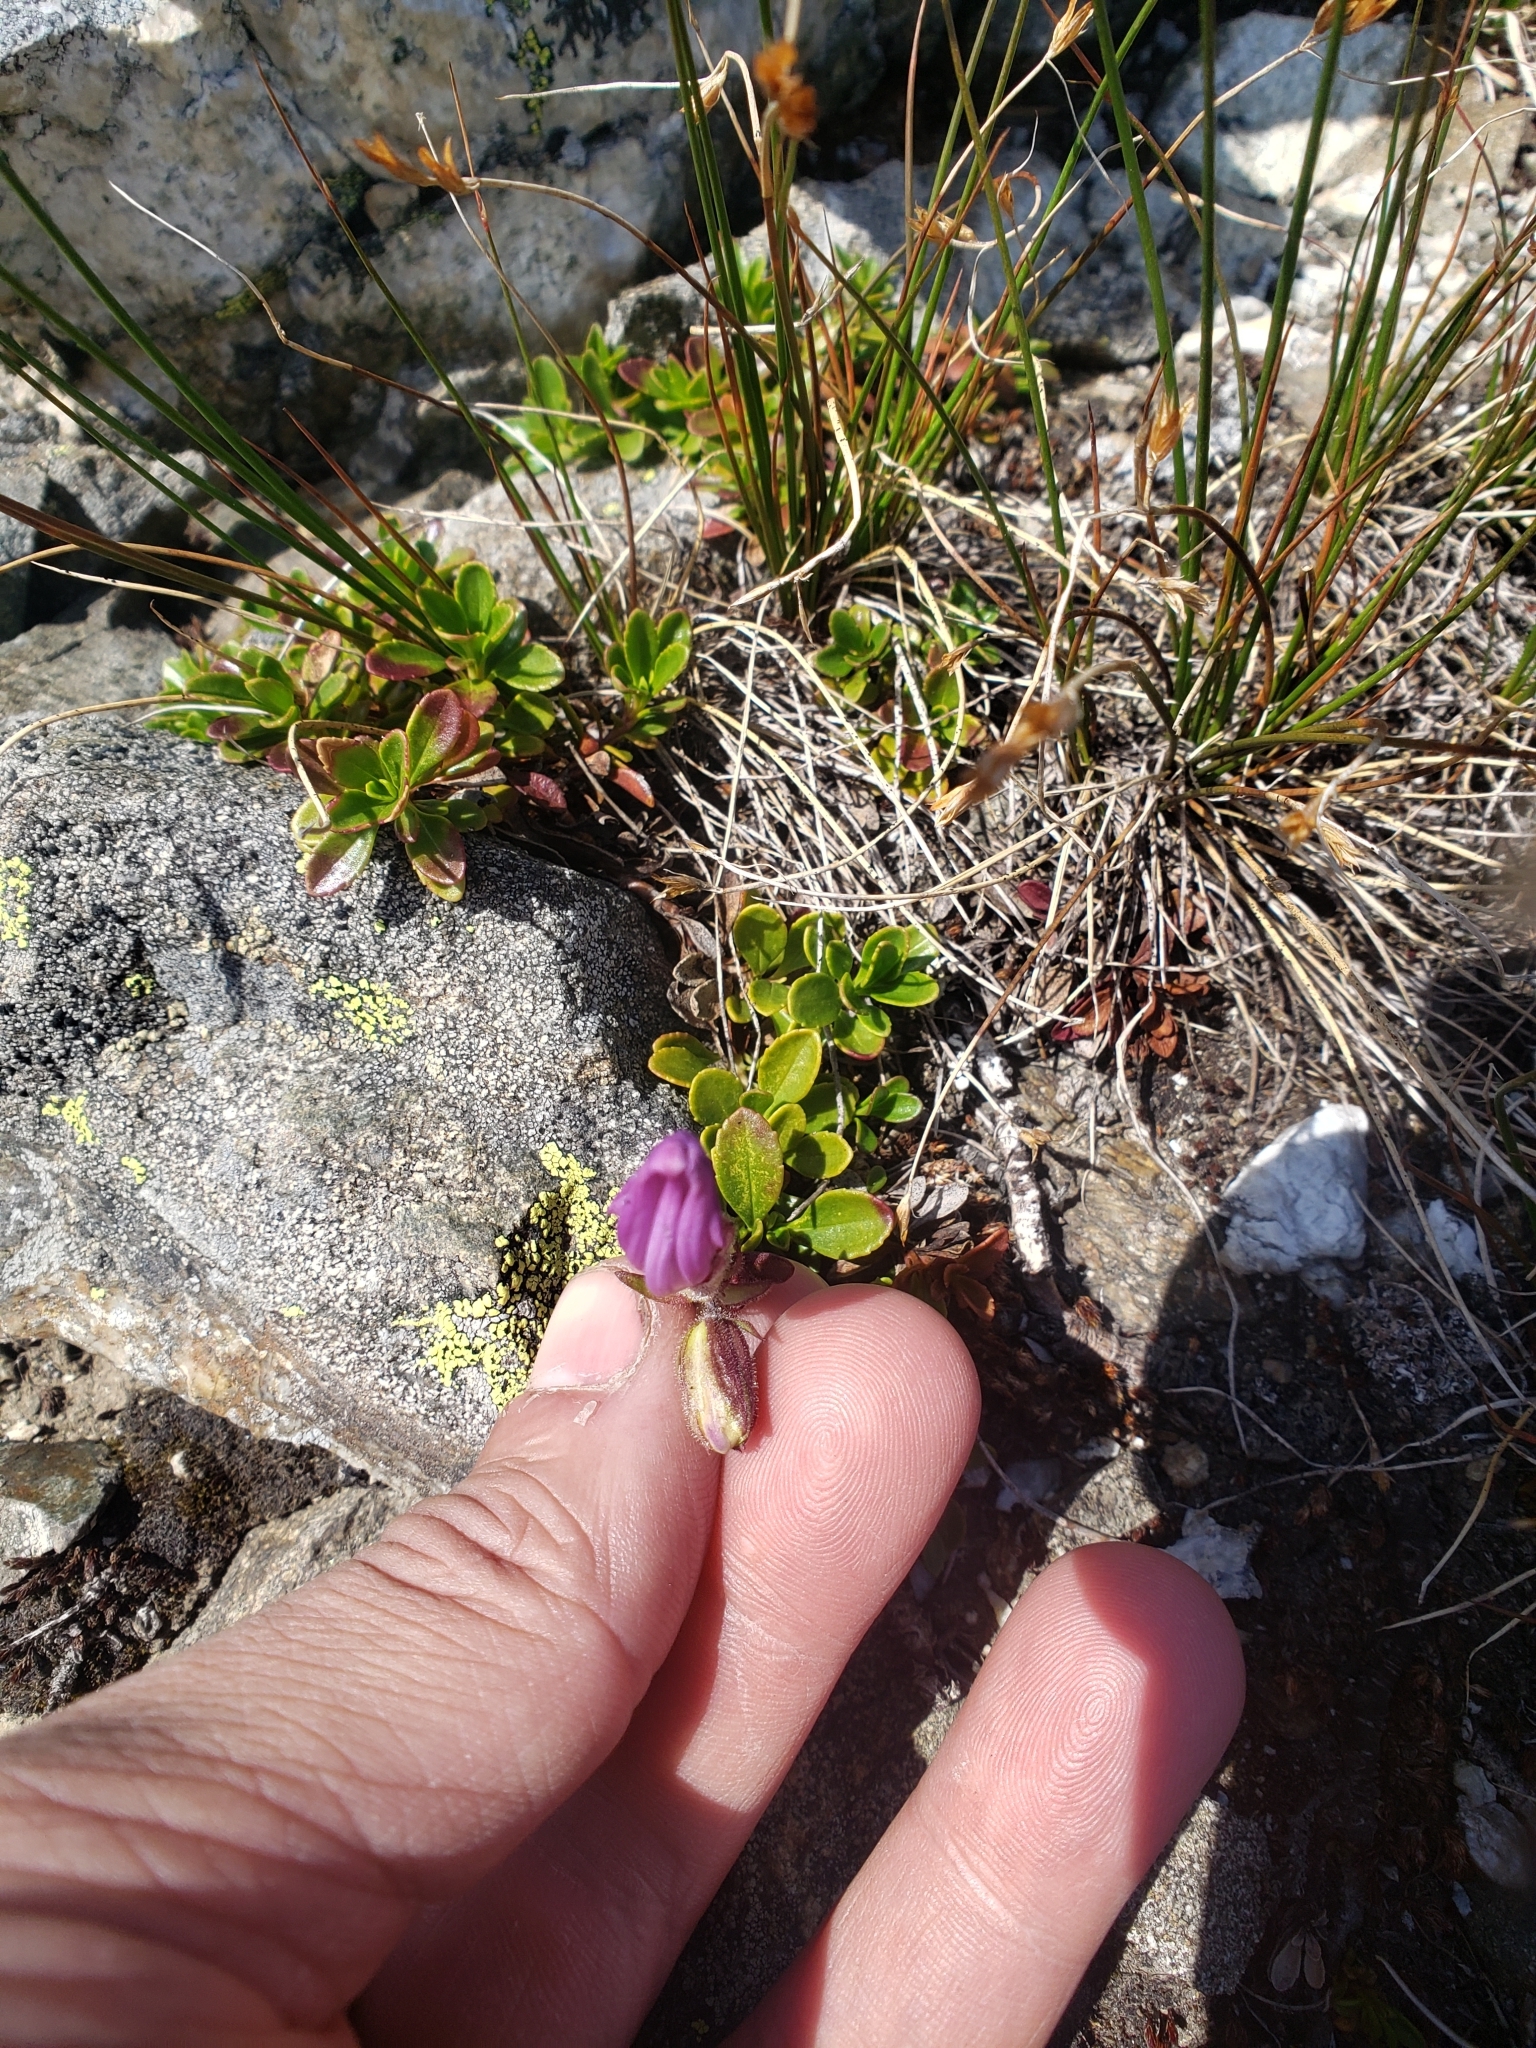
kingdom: Plantae
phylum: Tracheophyta
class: Magnoliopsida
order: Lamiales
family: Plantaginaceae
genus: Penstemon
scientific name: Penstemon davidsonii
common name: Davidson's penstemon
